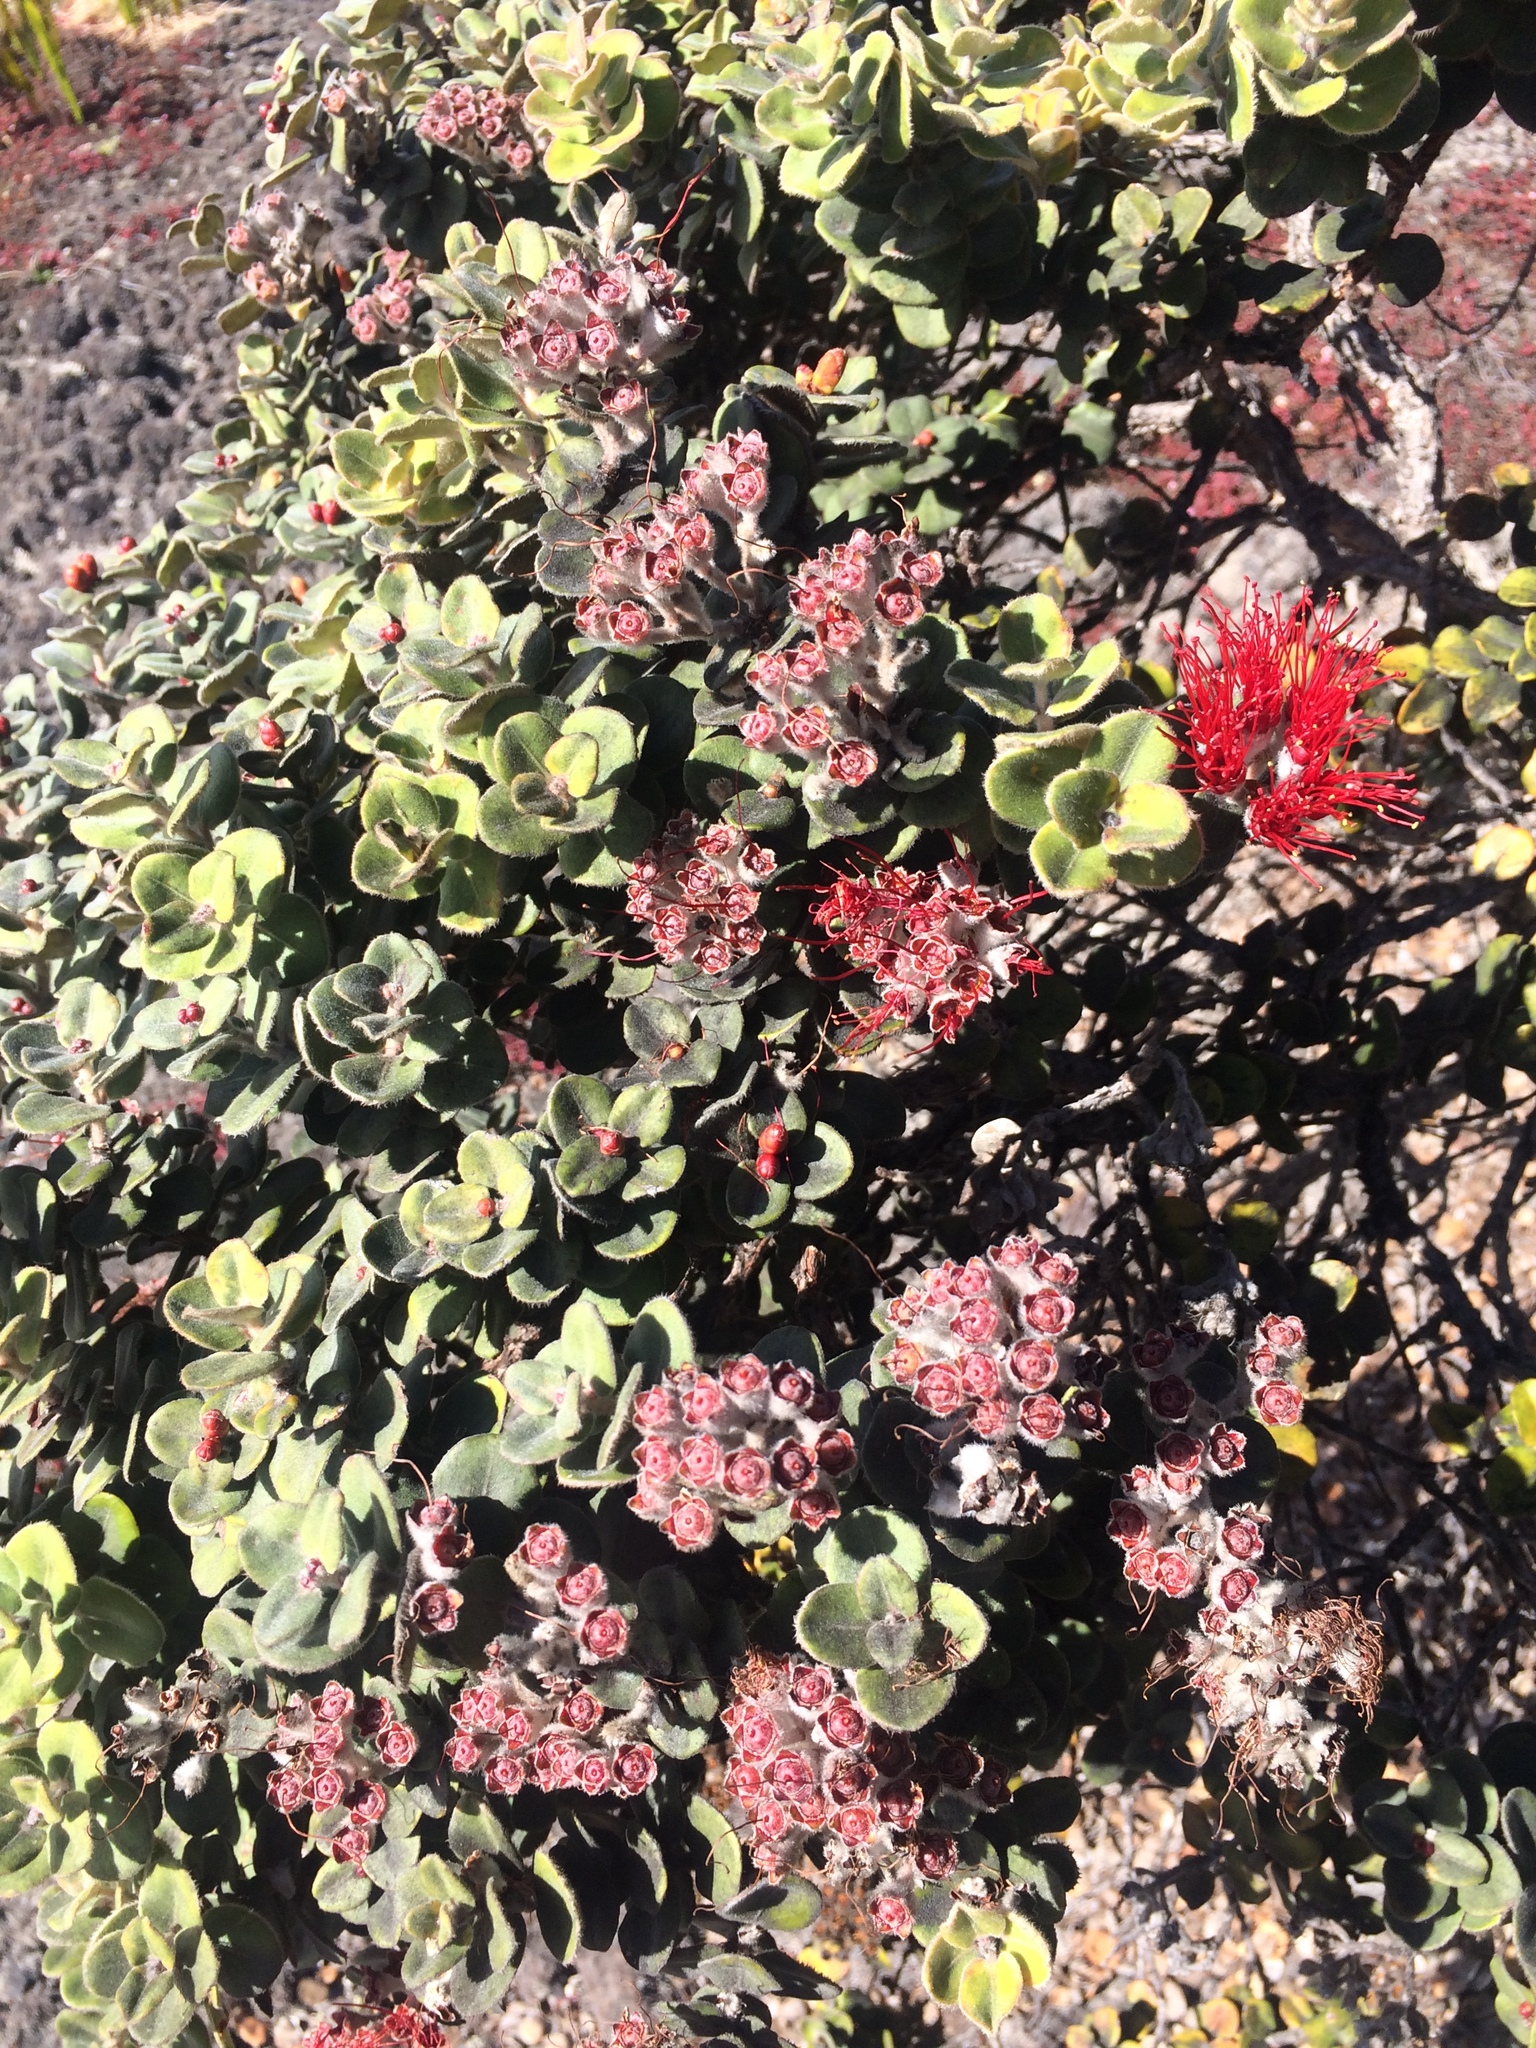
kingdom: Plantae
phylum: Tracheophyta
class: Magnoliopsida
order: Myrtales
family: Myrtaceae
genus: Metrosideros
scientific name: Metrosideros polymorpha
